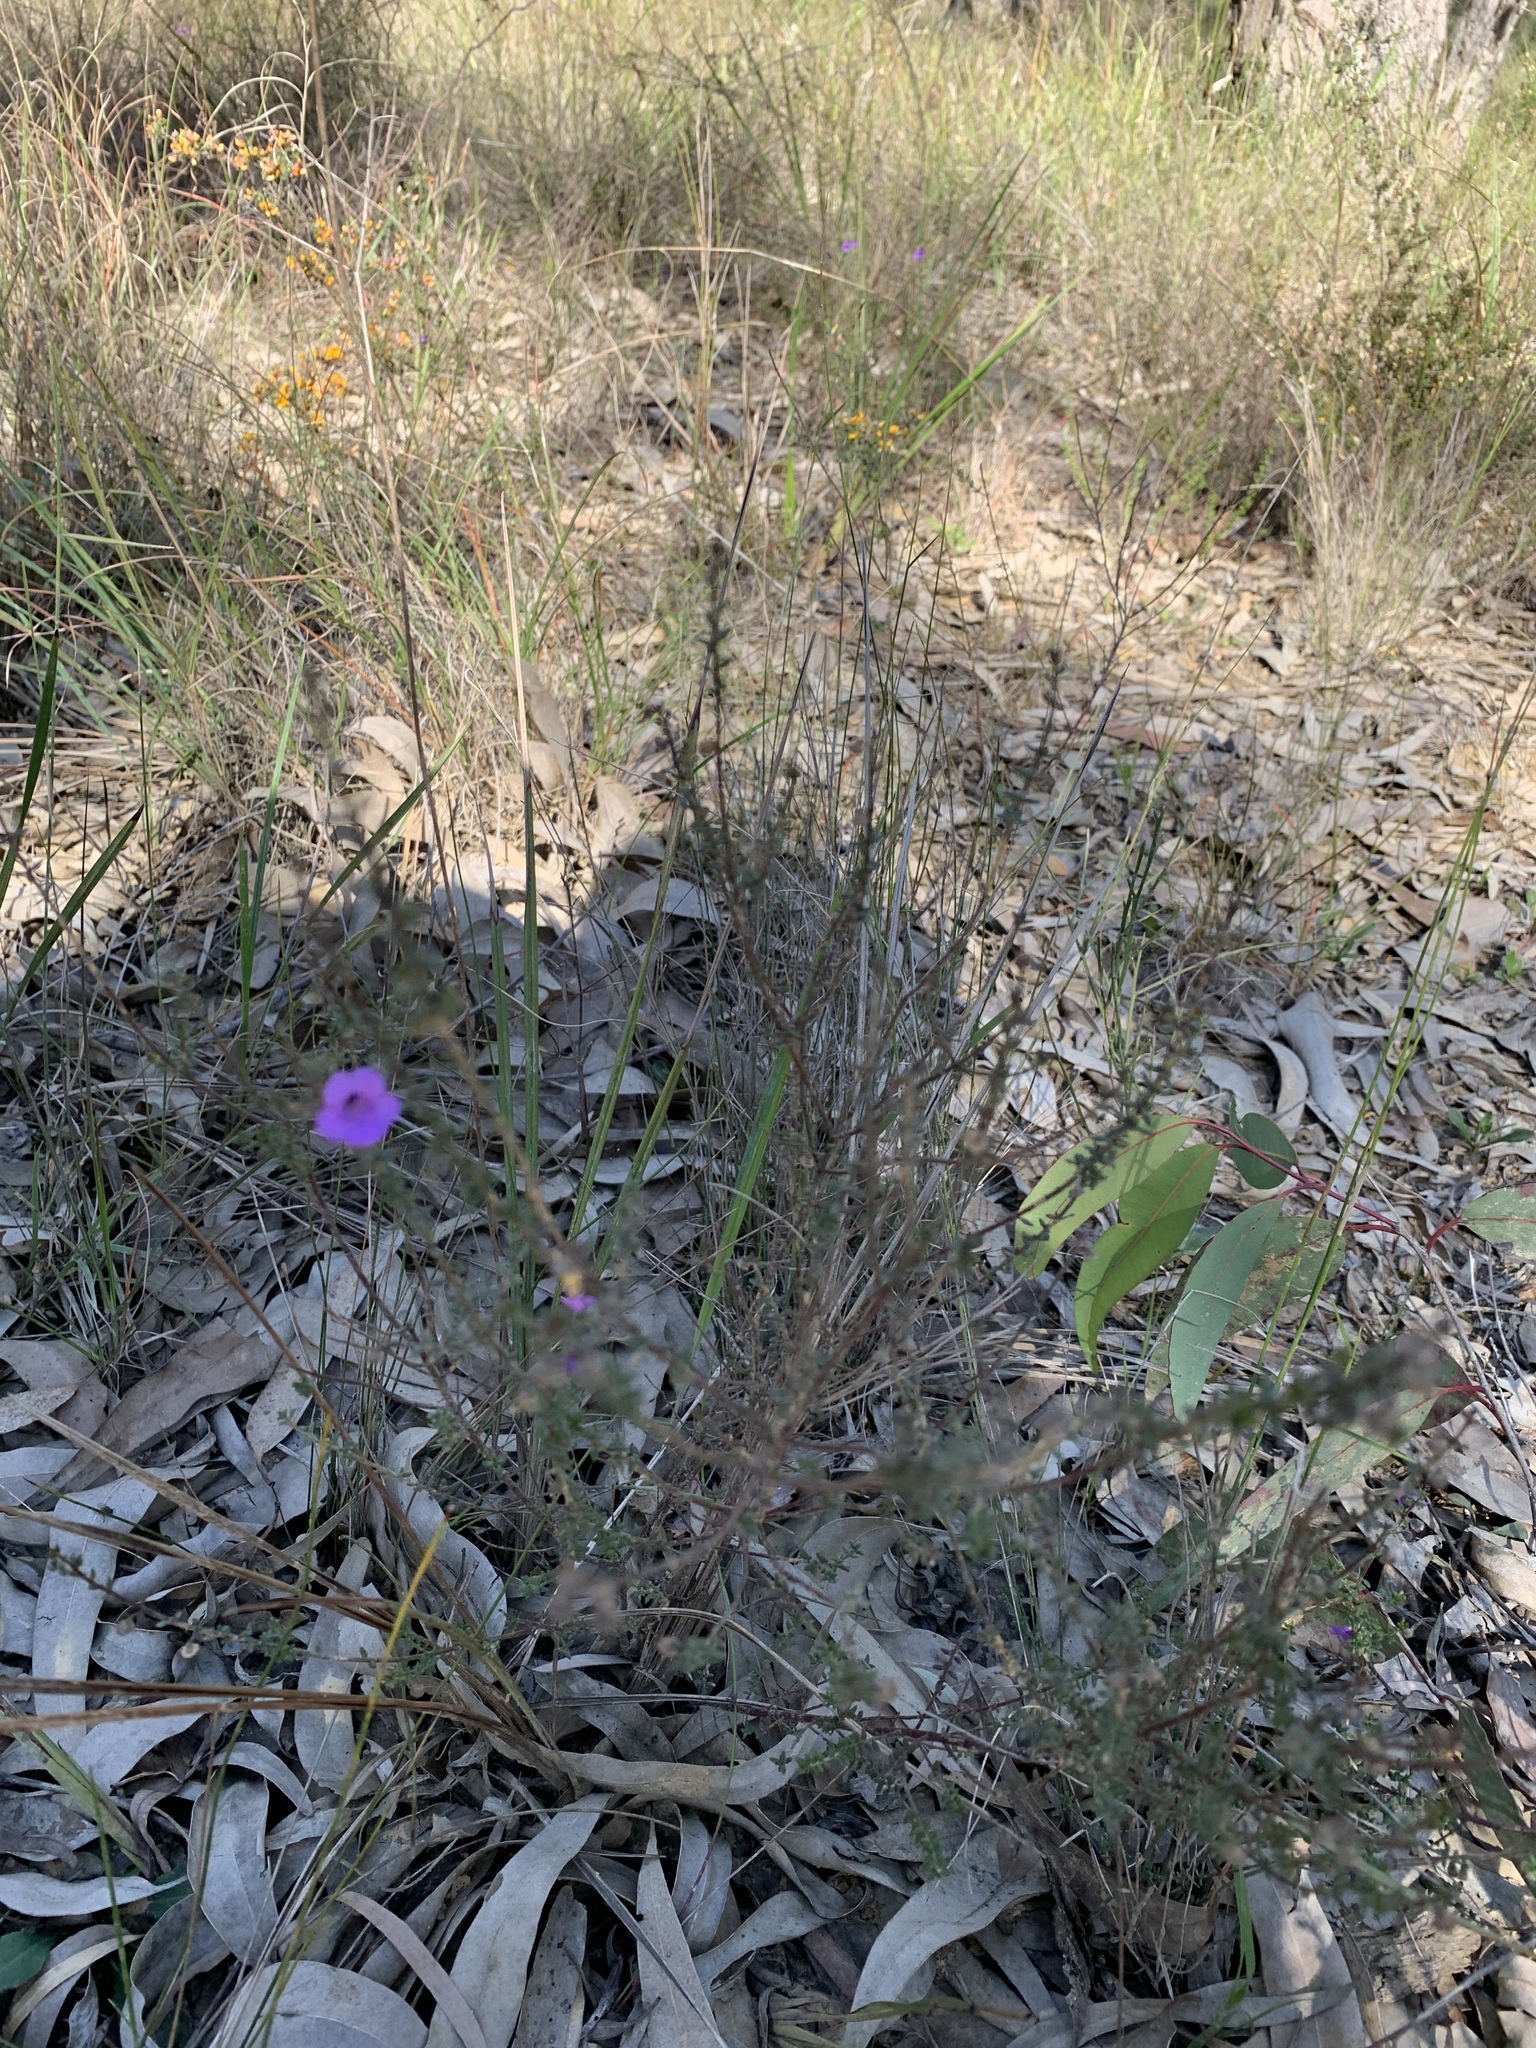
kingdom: Plantae
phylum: Tracheophyta
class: Magnoliopsida
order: Lamiales
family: Lamiaceae
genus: Prostanthera
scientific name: Prostanthera howelliae
